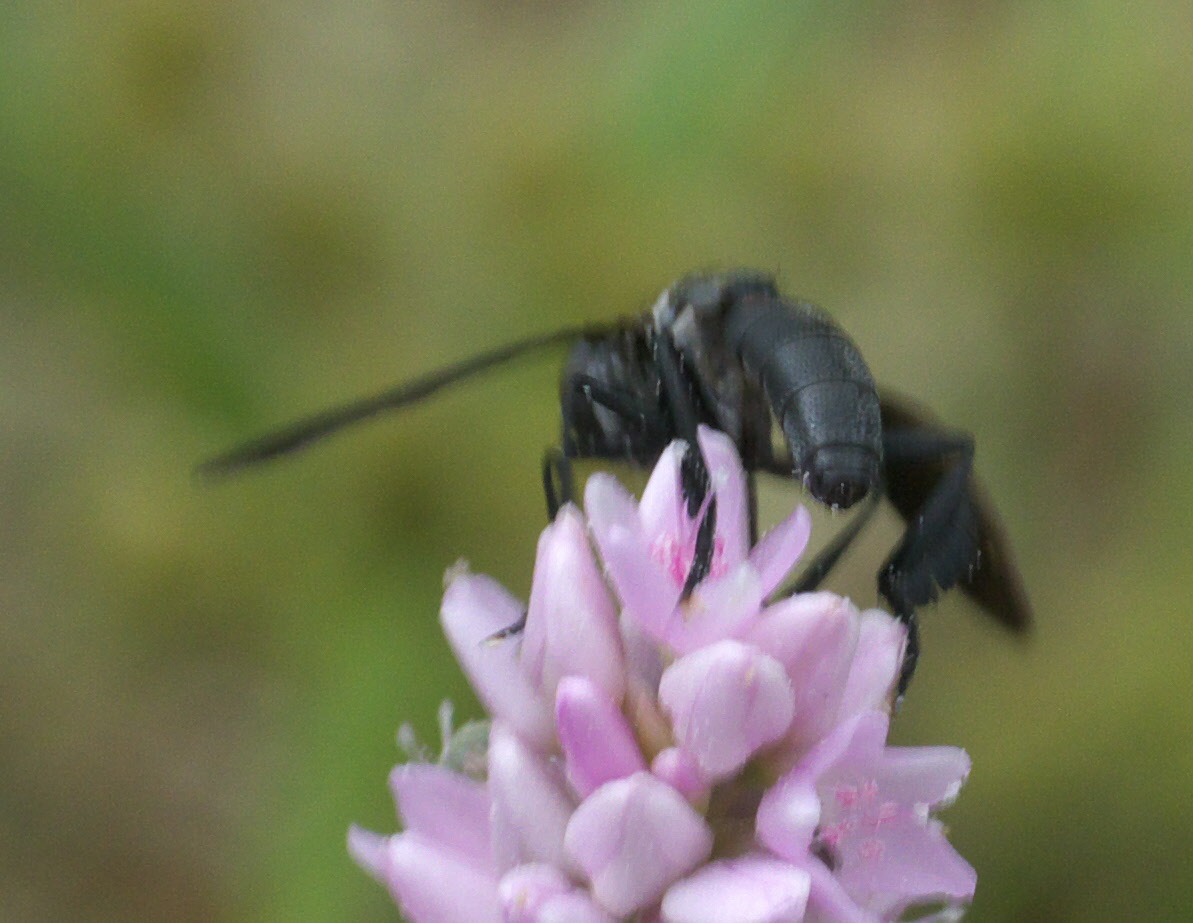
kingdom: Animalia
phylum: Arthropoda
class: Insecta
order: Diptera
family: Tachinidae
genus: Trichopoda
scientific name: Trichopoda lanipes
